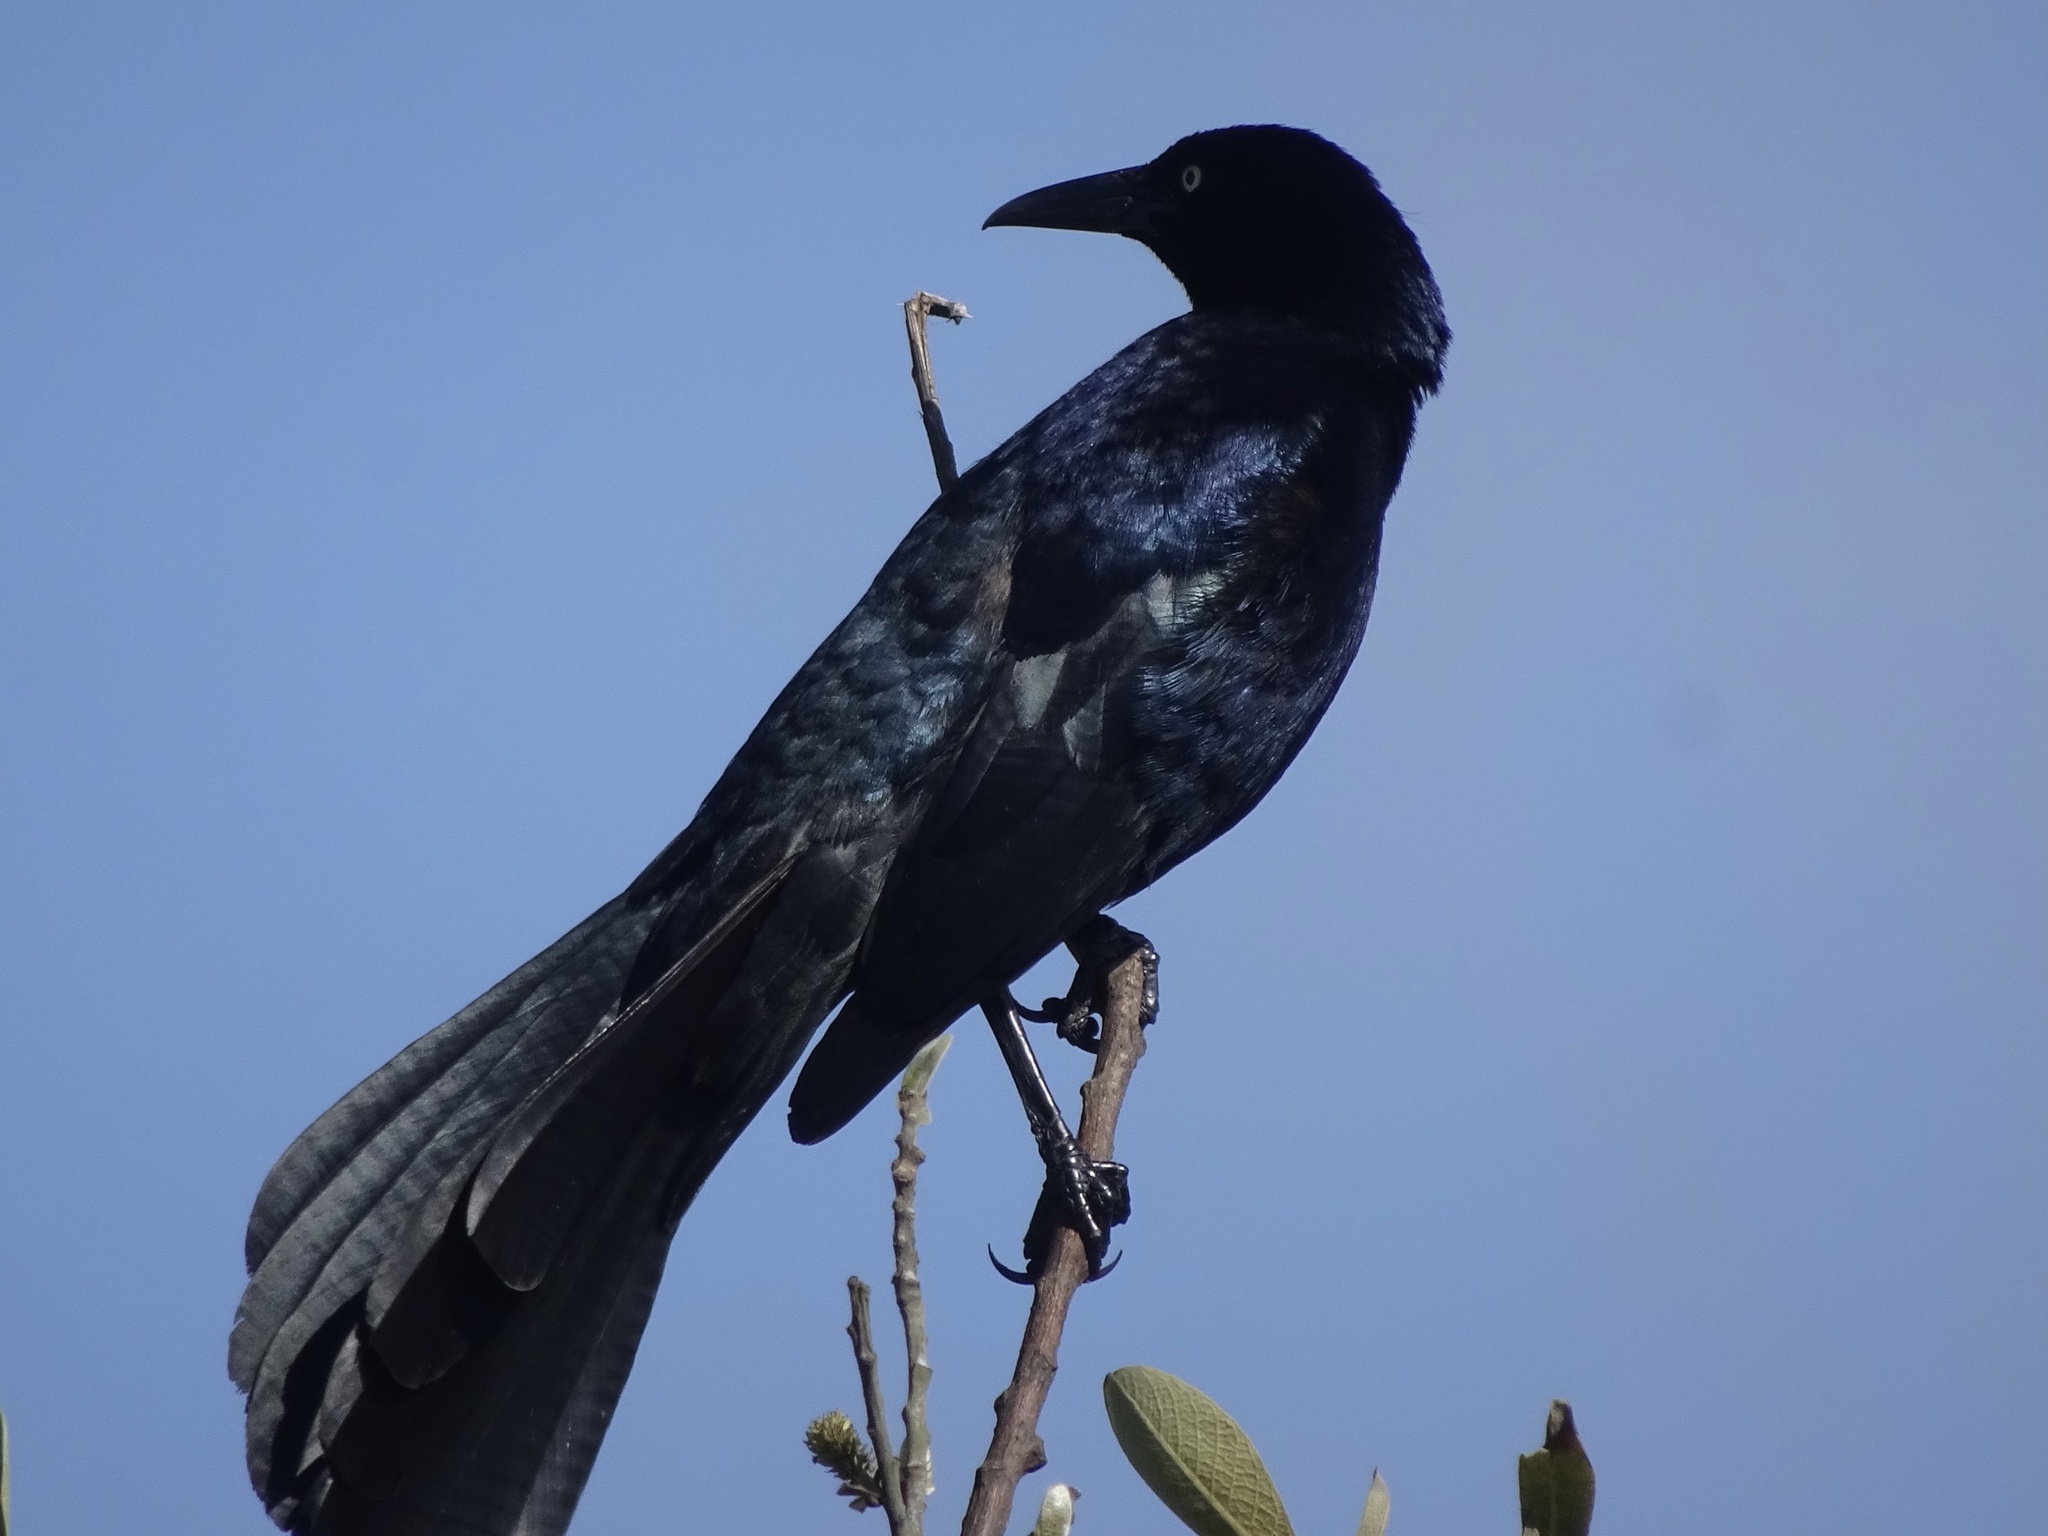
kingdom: Animalia
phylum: Chordata
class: Aves
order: Passeriformes
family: Icteridae
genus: Quiscalus
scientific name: Quiscalus mexicanus
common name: Great-tailed grackle
